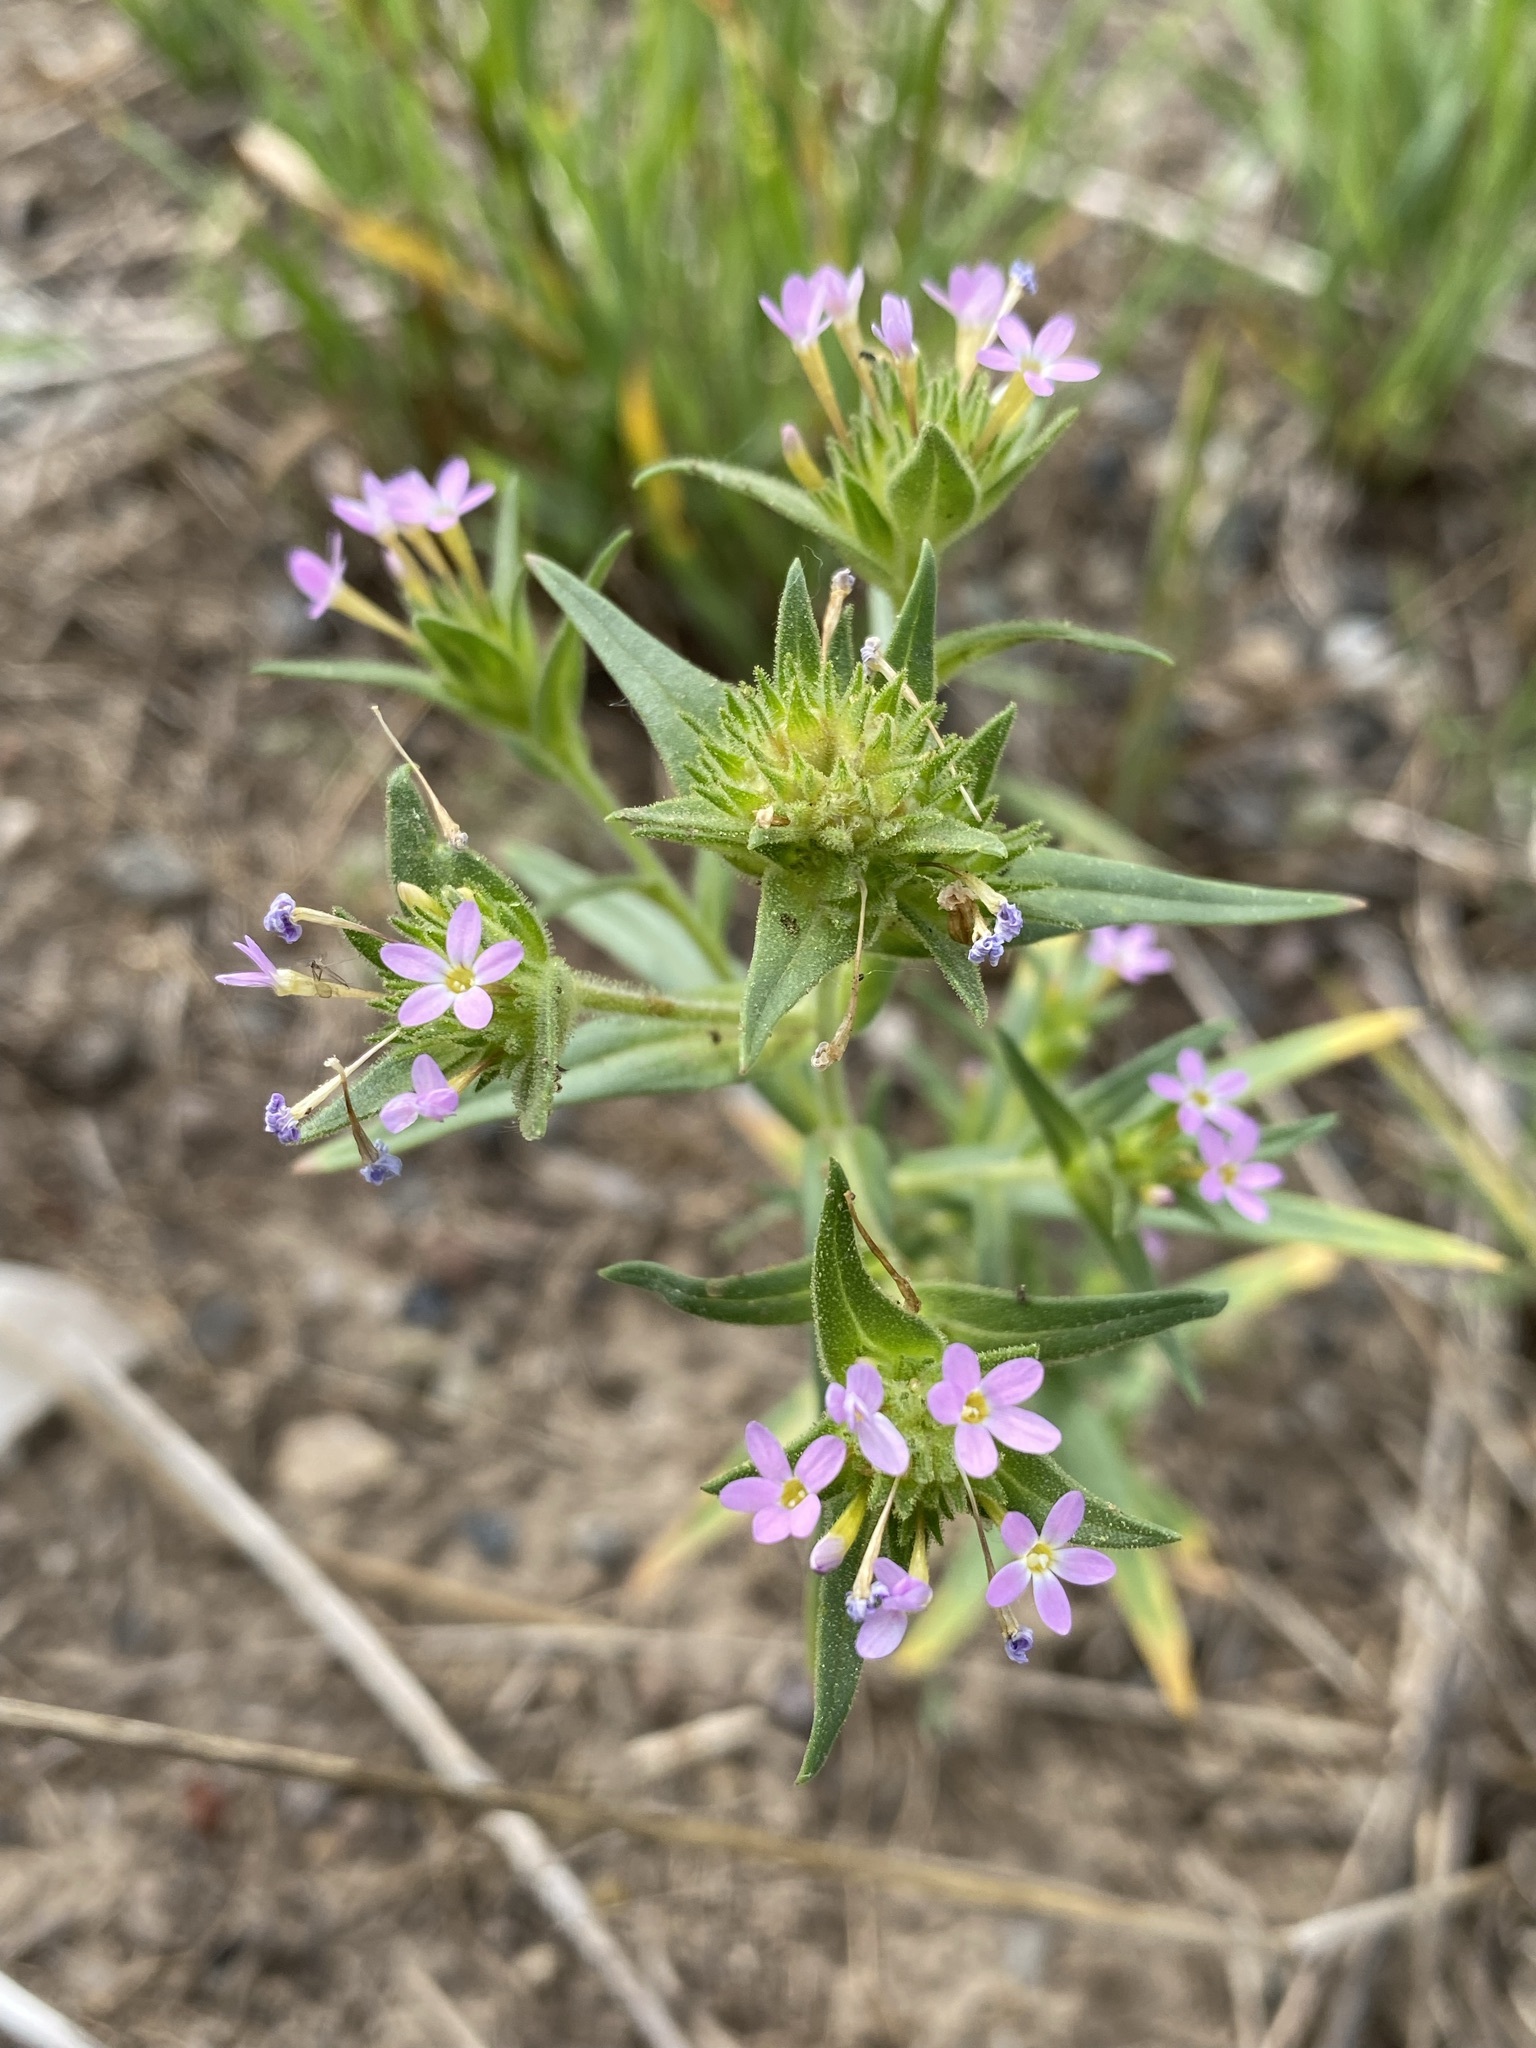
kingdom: Plantae
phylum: Tracheophyta
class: Magnoliopsida
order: Ericales
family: Polemoniaceae
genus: Collomia
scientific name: Collomia linearis
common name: Tiny trumpet
